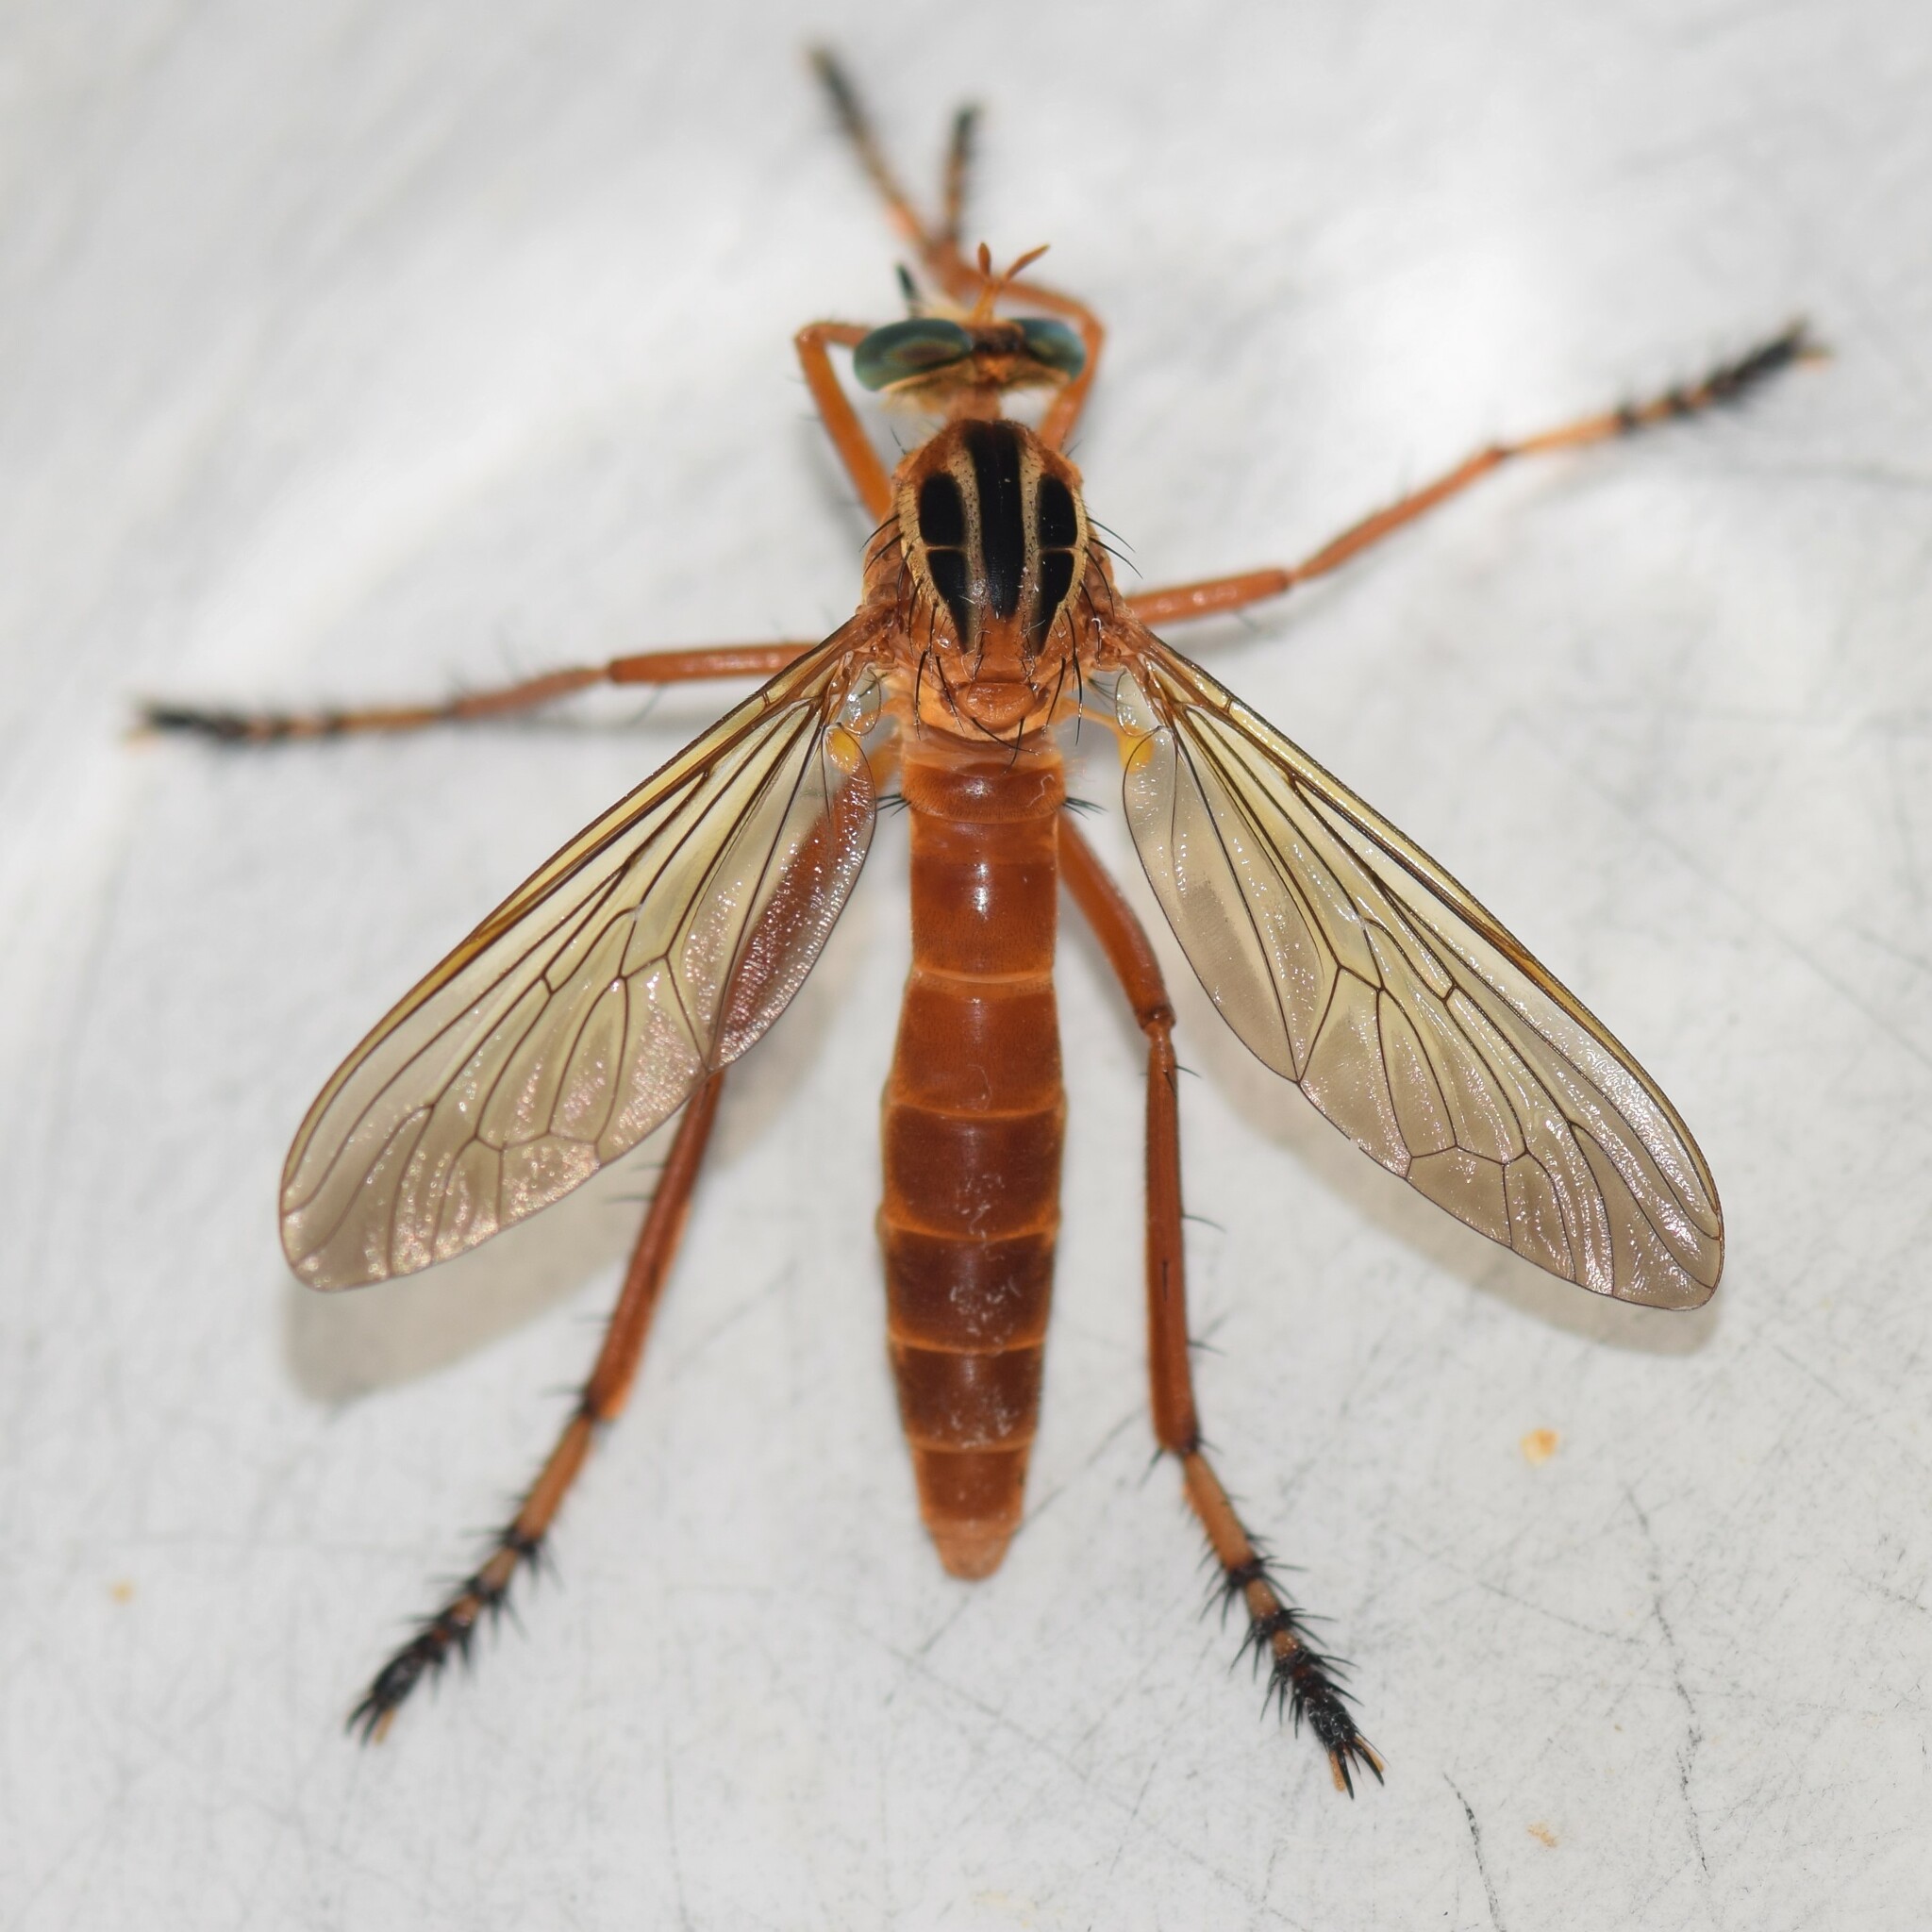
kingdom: Animalia
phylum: Arthropoda
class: Insecta
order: Diptera
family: Asilidae
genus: Diogmites
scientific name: Diogmites neoternatus
